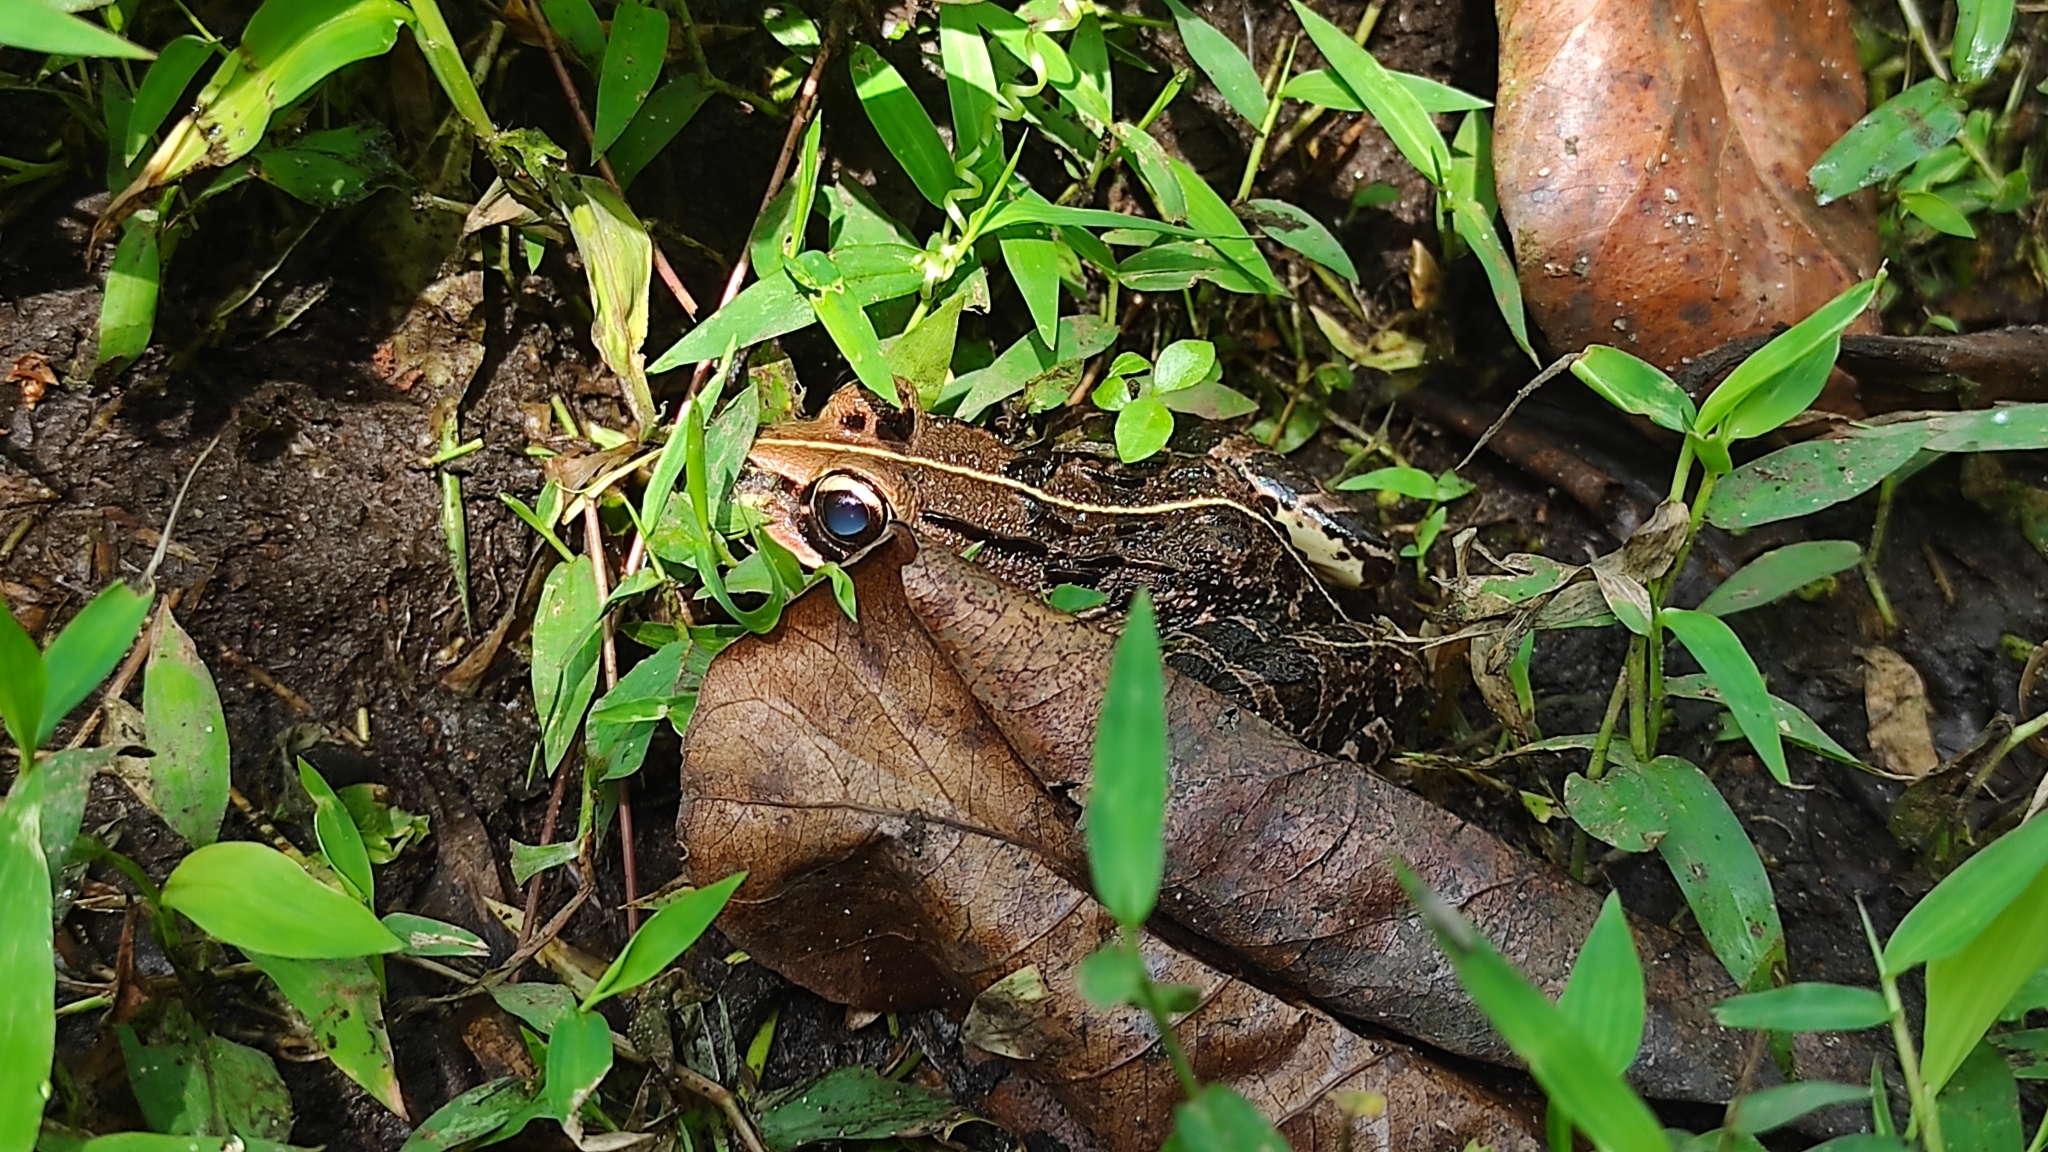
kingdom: Animalia
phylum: Chordata
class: Amphibia
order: Anura
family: Dicroglossidae
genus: Hoplobatrachus
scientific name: Hoplobatrachus tigerinus
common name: Indian bullfrog
